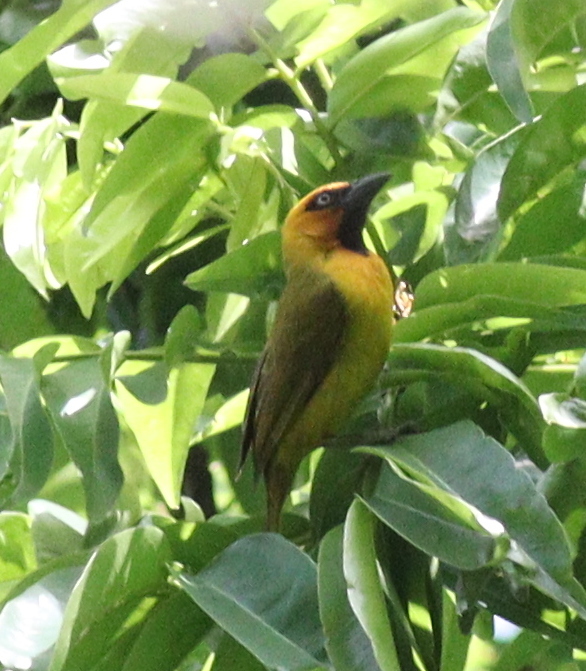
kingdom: Animalia
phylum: Chordata
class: Aves
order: Passeriformes
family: Ploceidae
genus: Ploceus
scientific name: Ploceus brachypterus
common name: Olive-naped weaver
